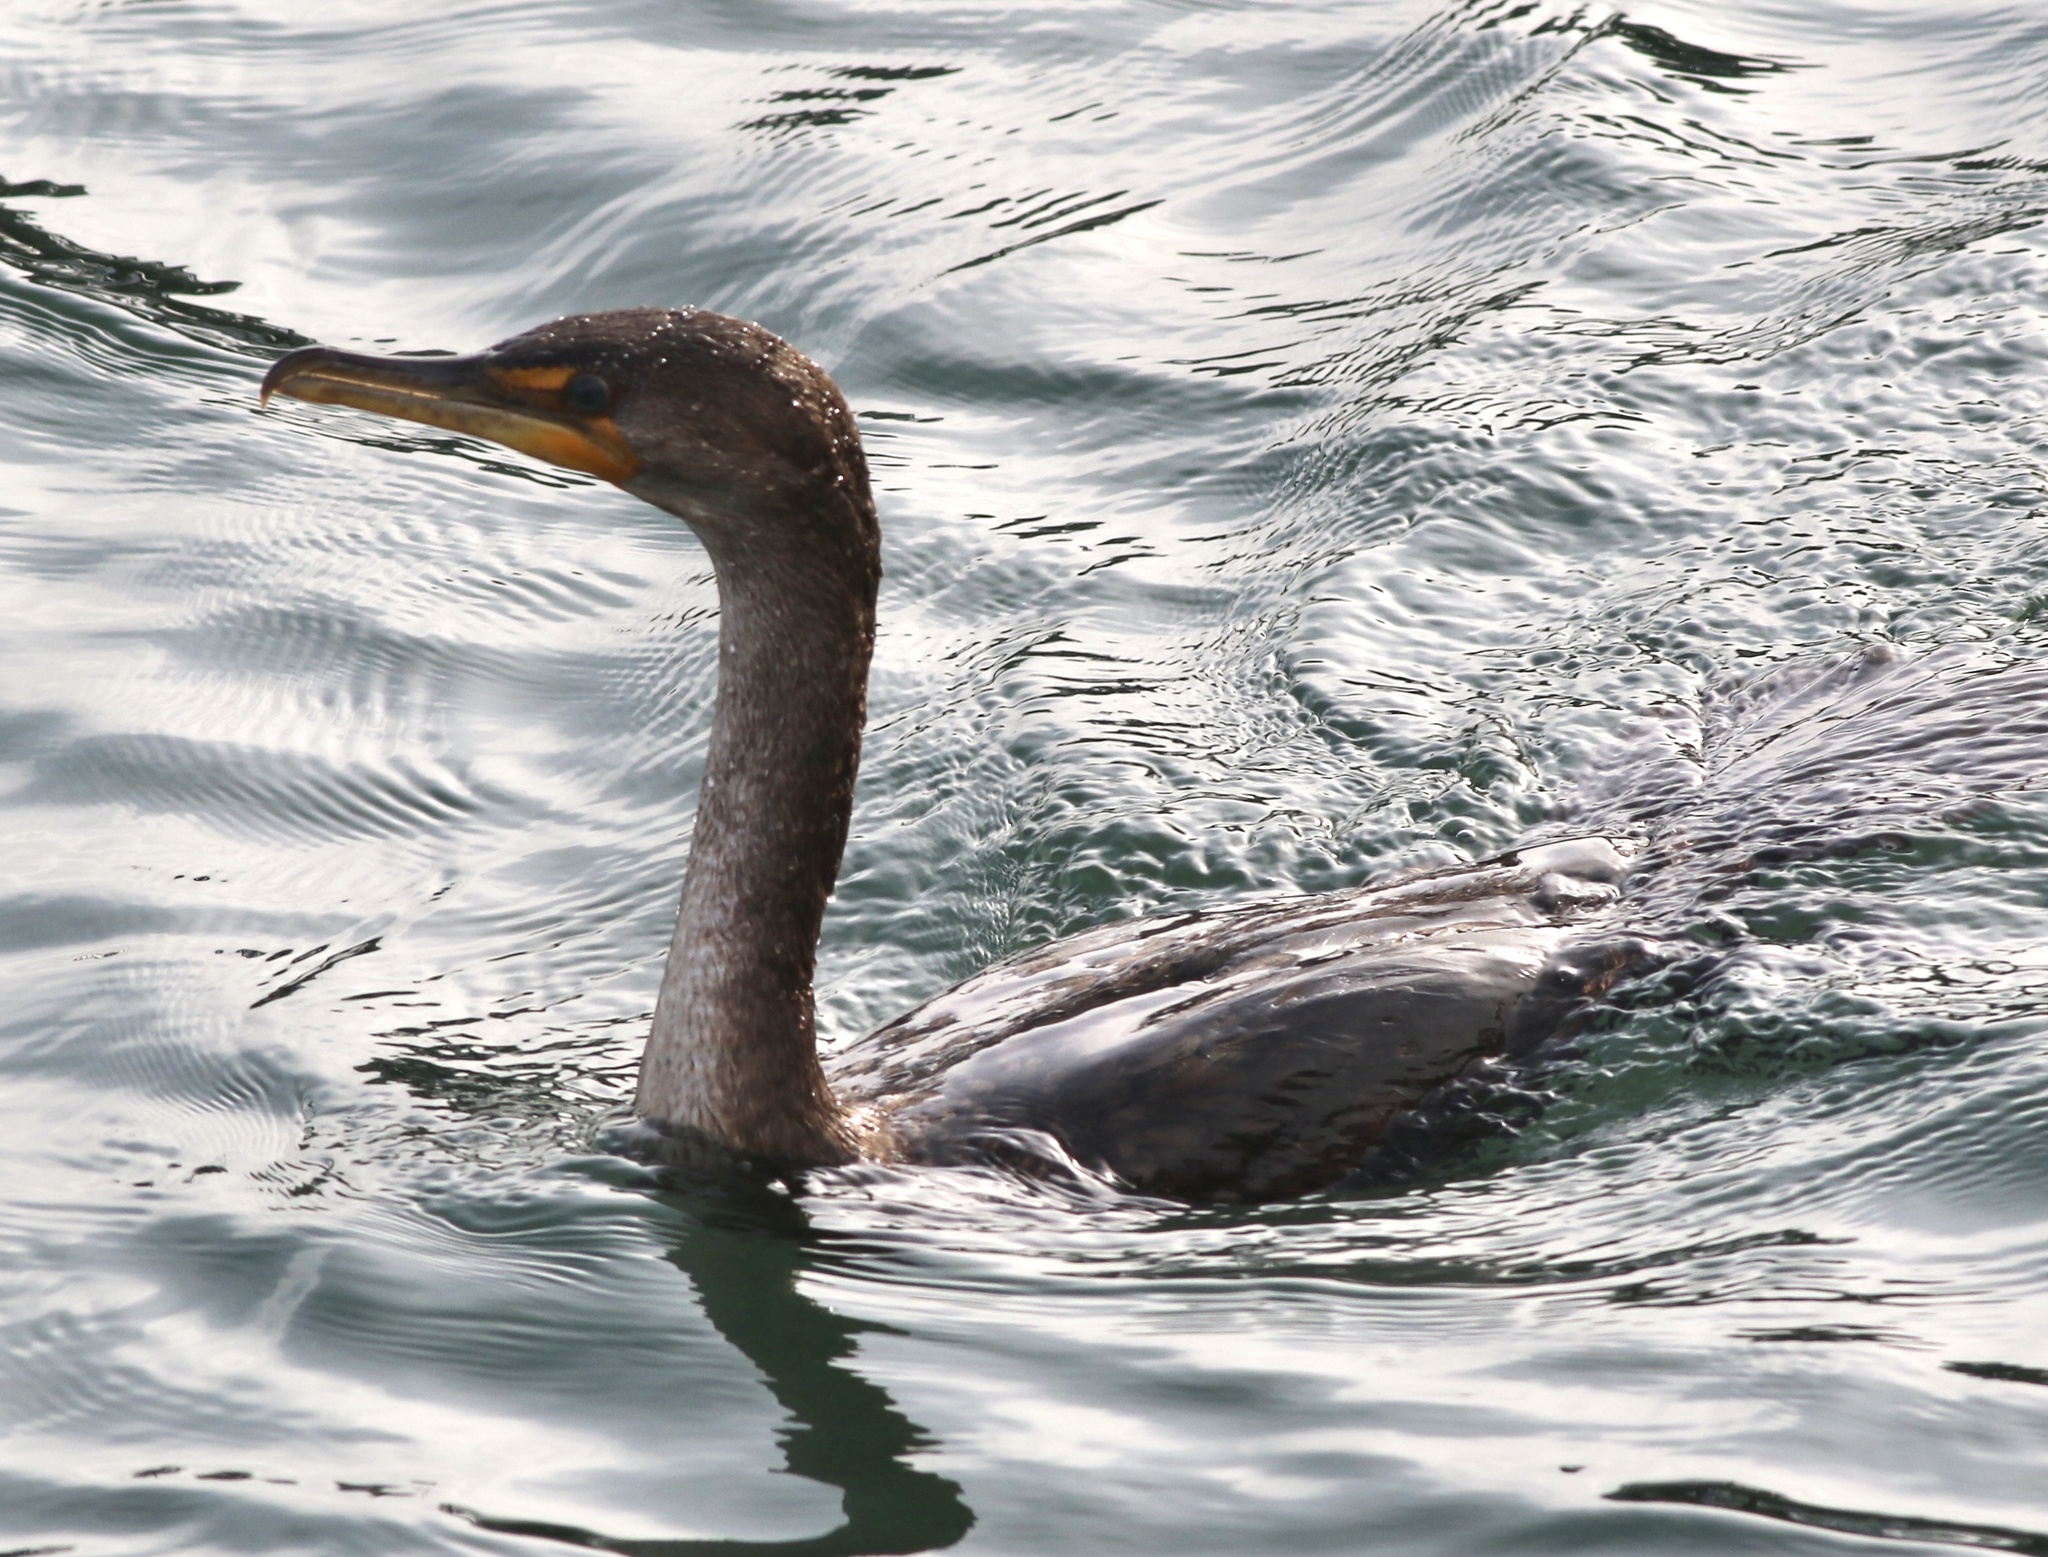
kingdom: Animalia
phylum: Chordata
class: Aves
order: Suliformes
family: Phalacrocoracidae
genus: Phalacrocorax
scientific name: Phalacrocorax auritus
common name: Double-crested cormorant
